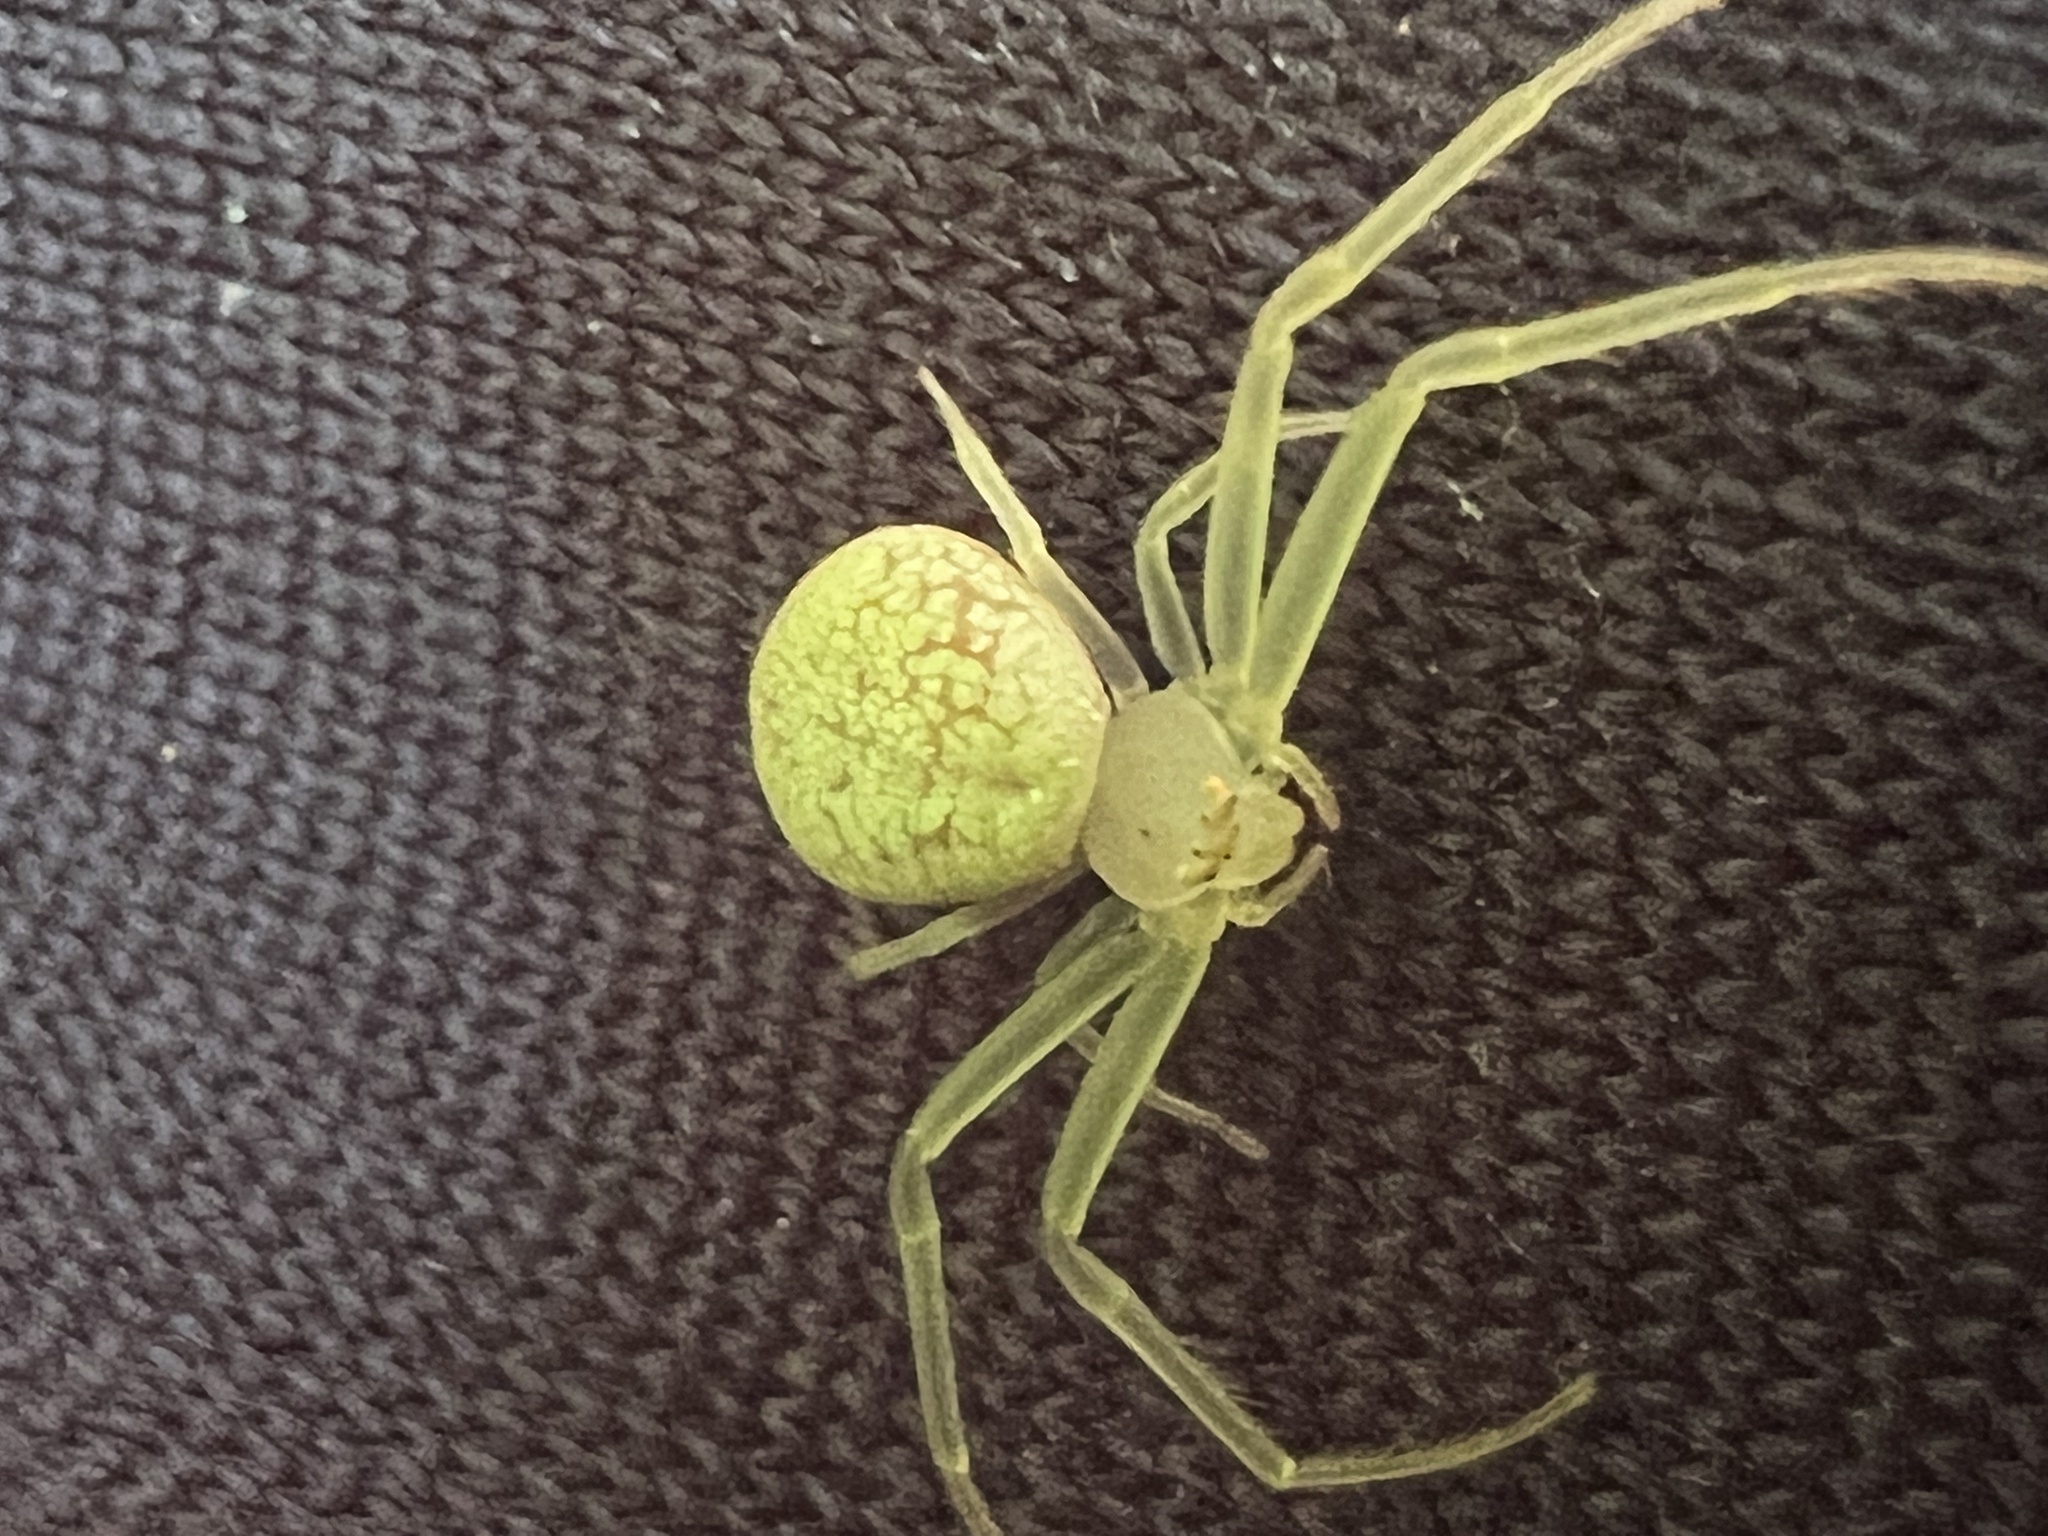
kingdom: Animalia
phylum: Arthropoda
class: Arachnida
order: Araneae
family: Thomisidae
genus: Misumessus
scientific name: Misumessus oblongus
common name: American green crab spider
